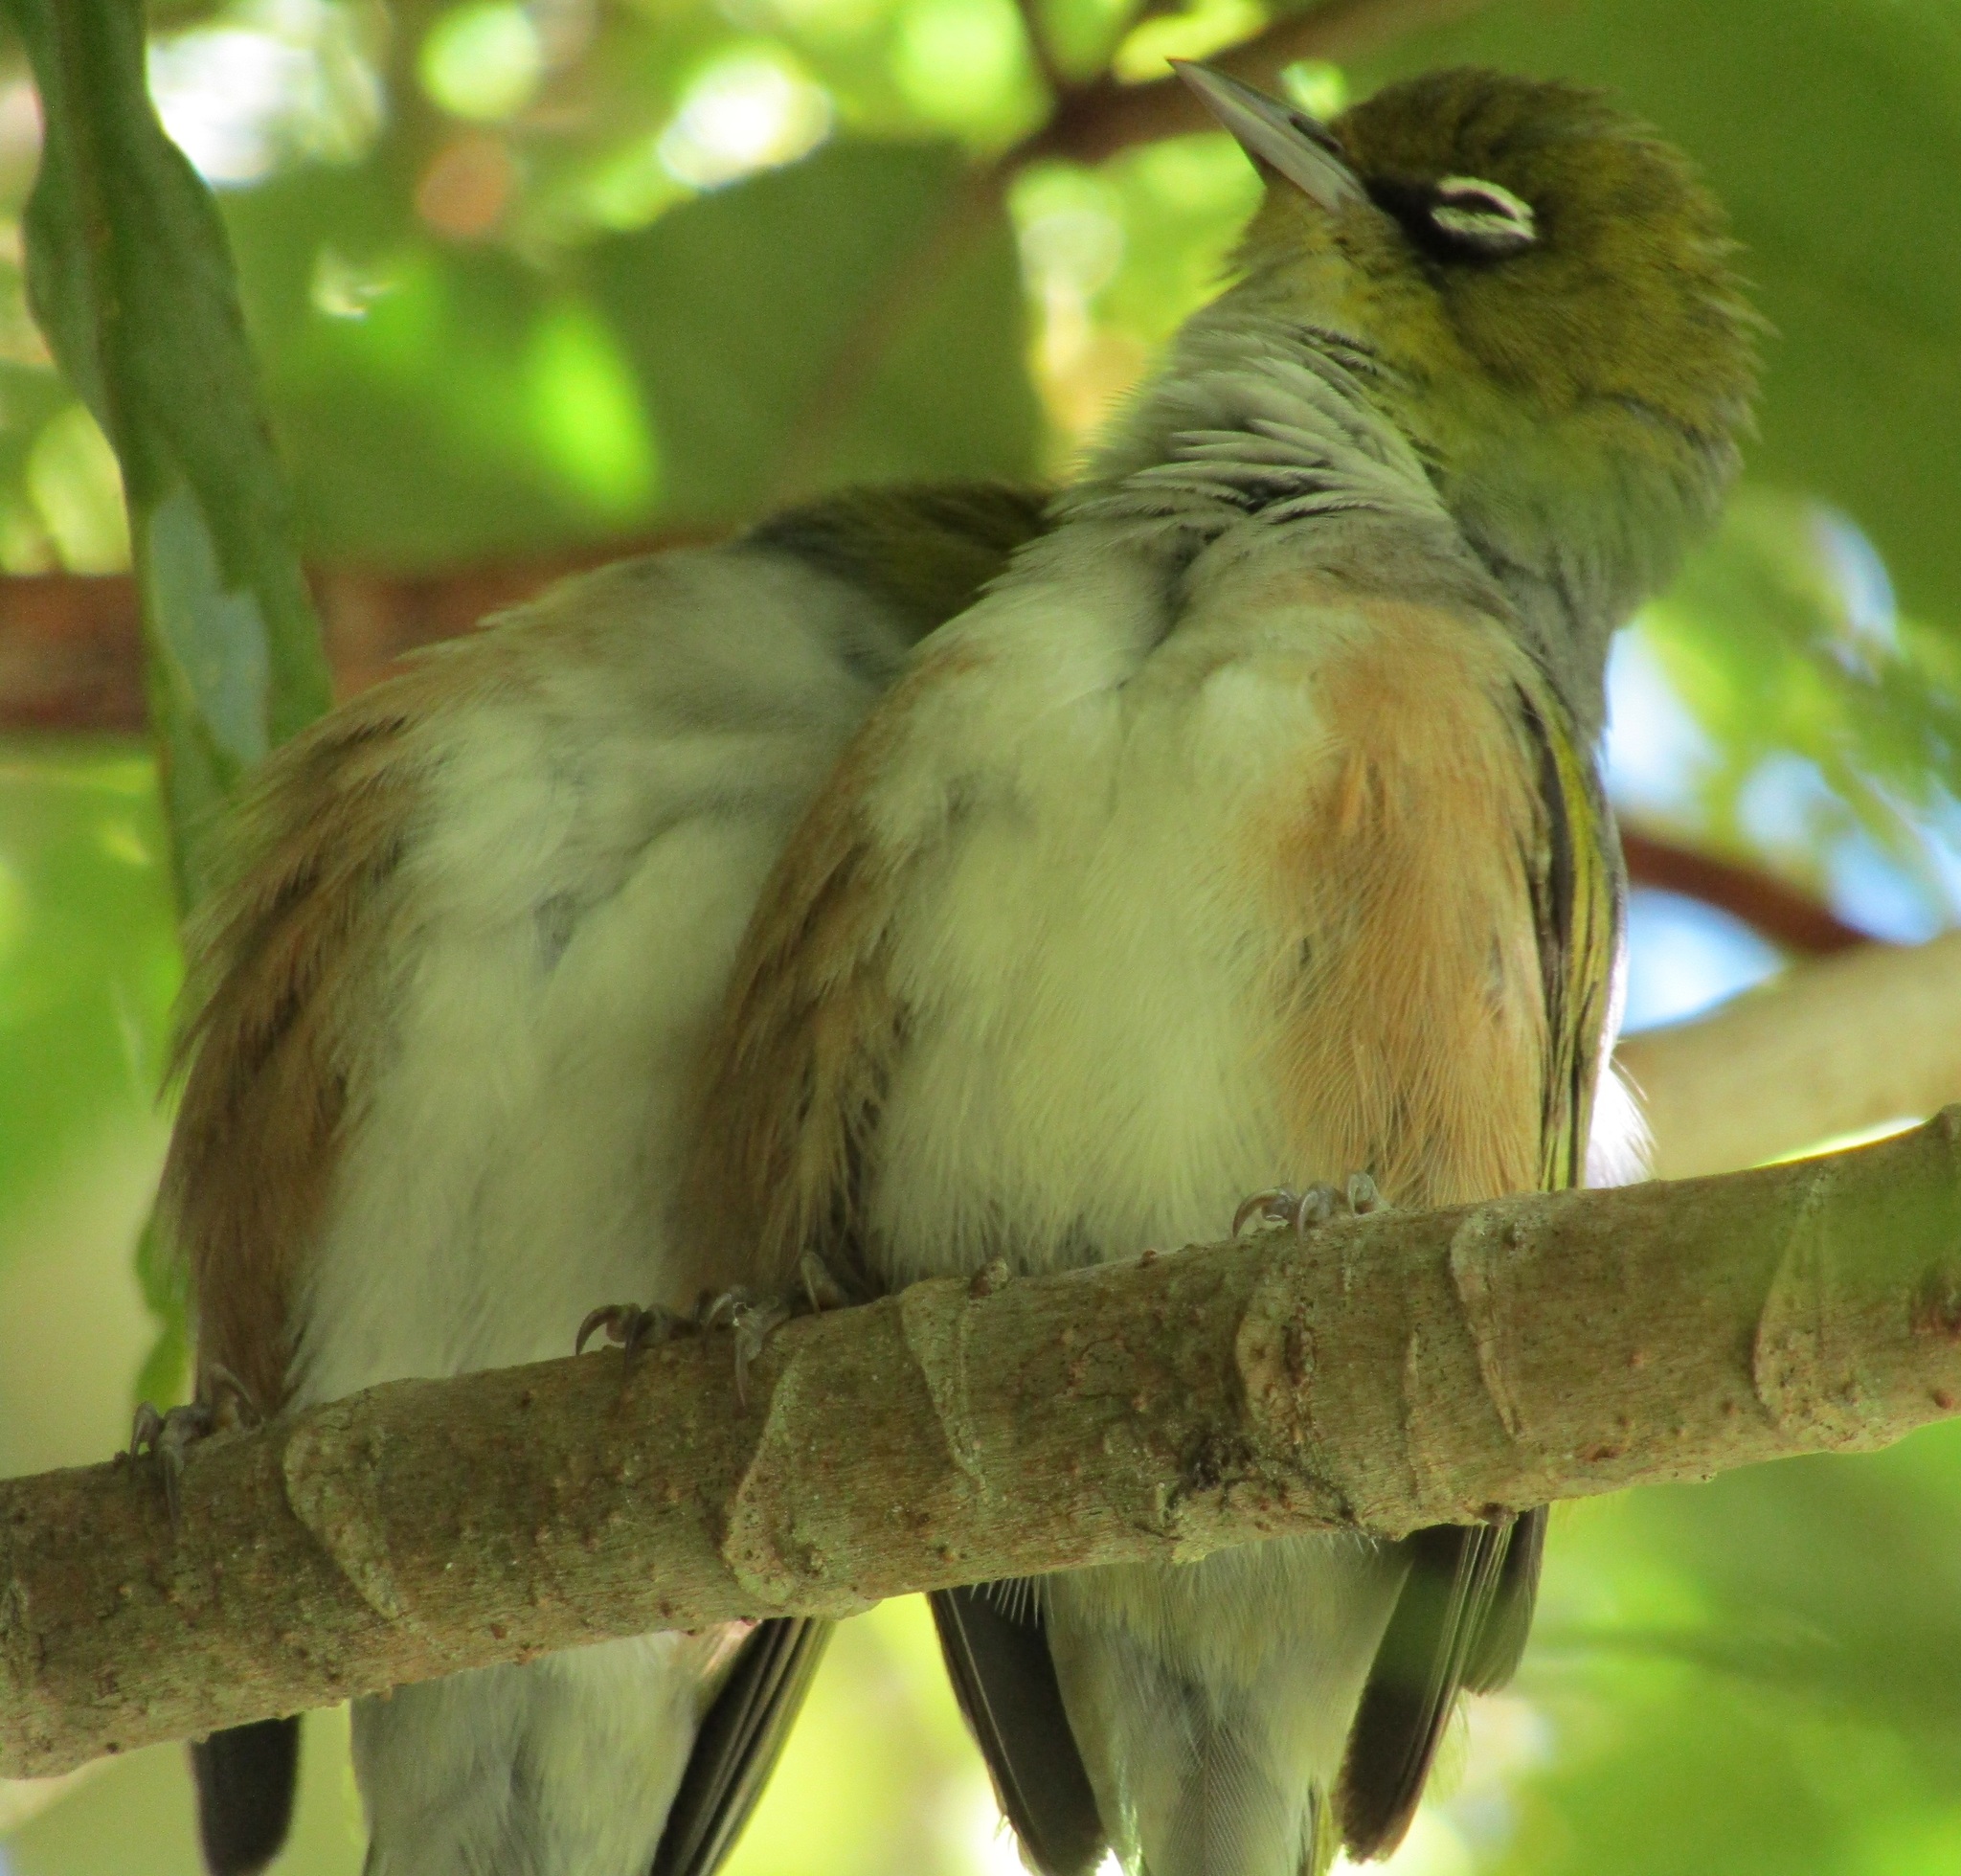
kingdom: Animalia
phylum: Chordata
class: Aves
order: Passeriformes
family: Zosteropidae
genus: Zosterops
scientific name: Zosterops lateralis
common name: Silvereye
